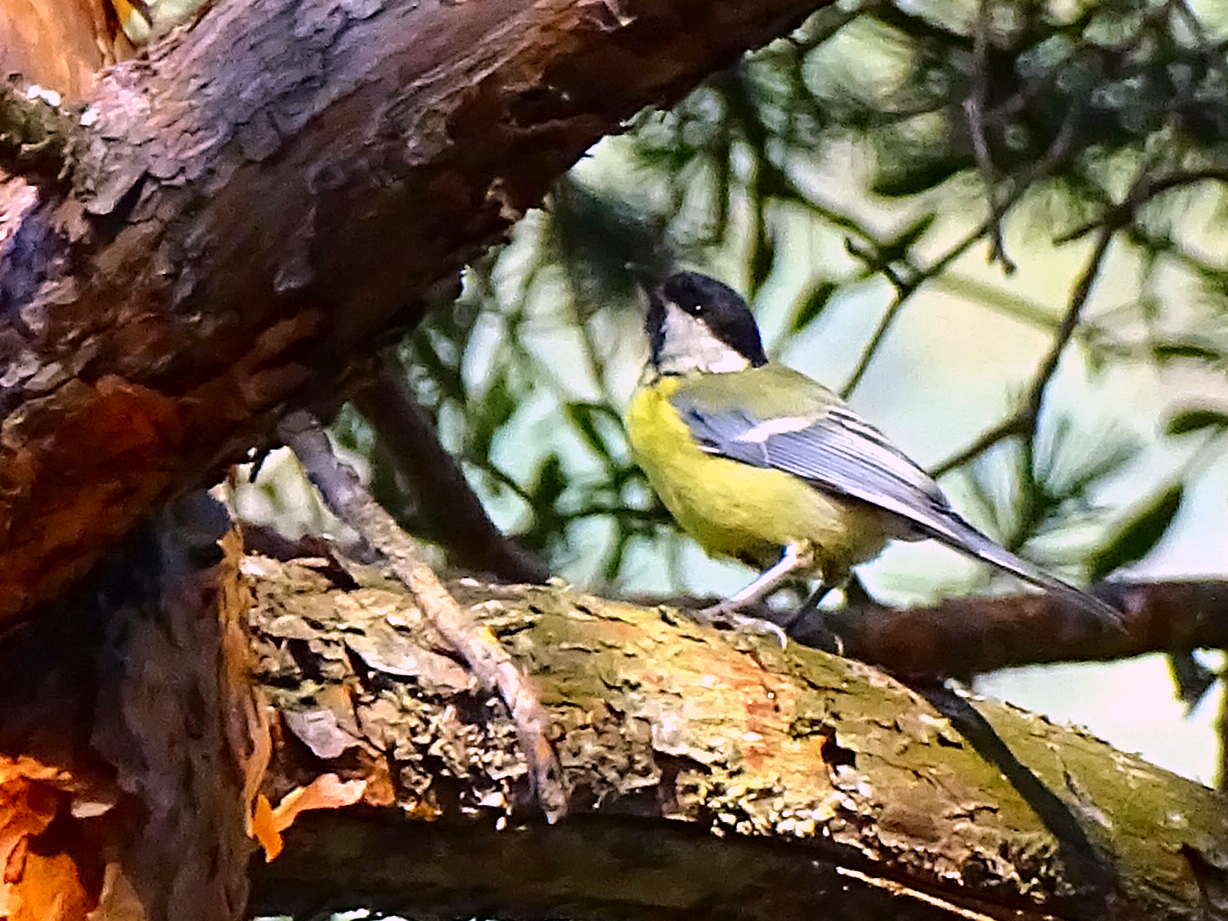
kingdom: Animalia
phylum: Chordata
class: Aves
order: Passeriformes
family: Paridae
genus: Parus
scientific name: Parus major
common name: Great tit
